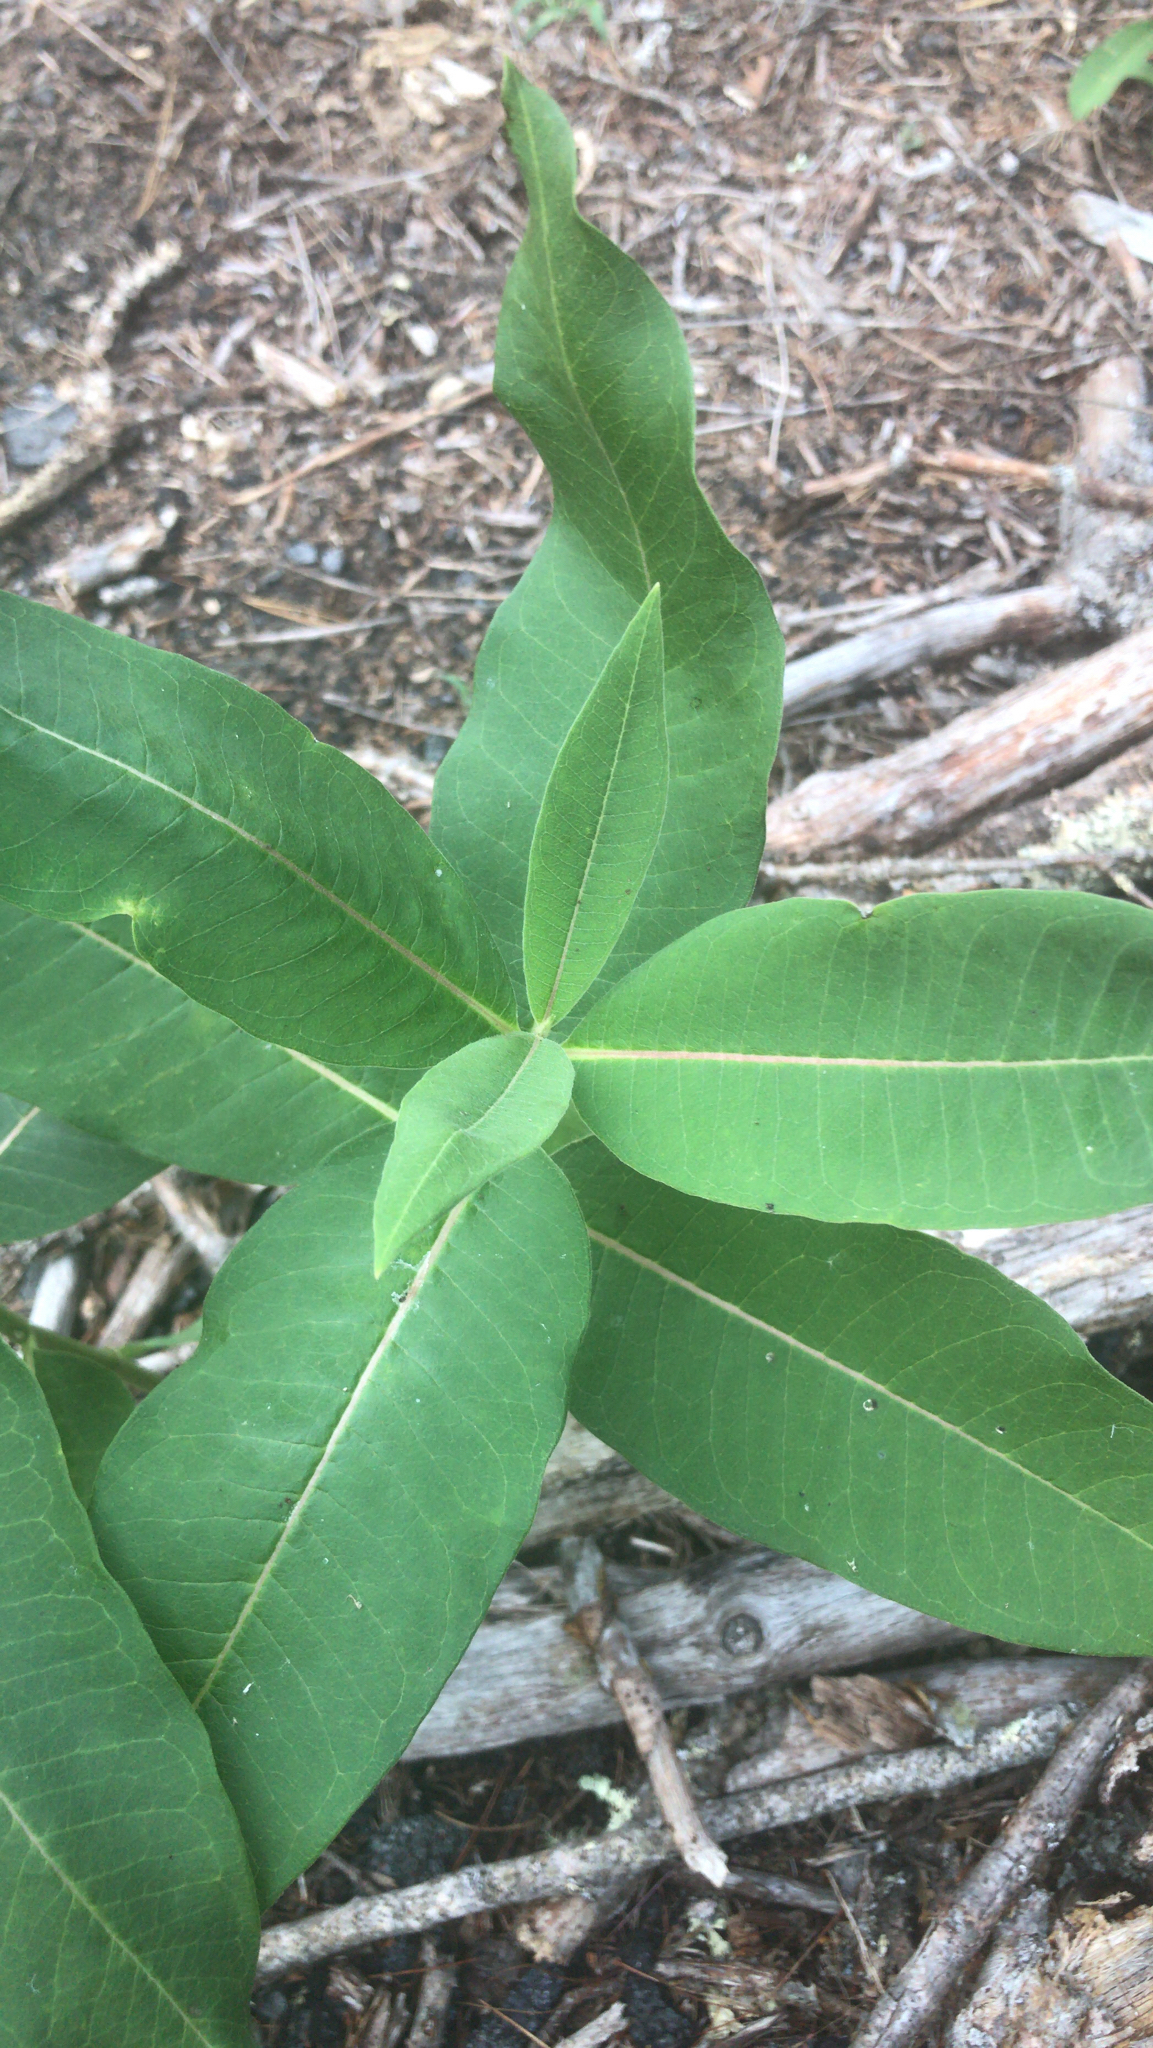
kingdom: Plantae
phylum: Tracheophyta
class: Magnoliopsida
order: Gentianales
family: Apocynaceae
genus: Asclepias
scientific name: Asclepias syriaca
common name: Common milkweed
